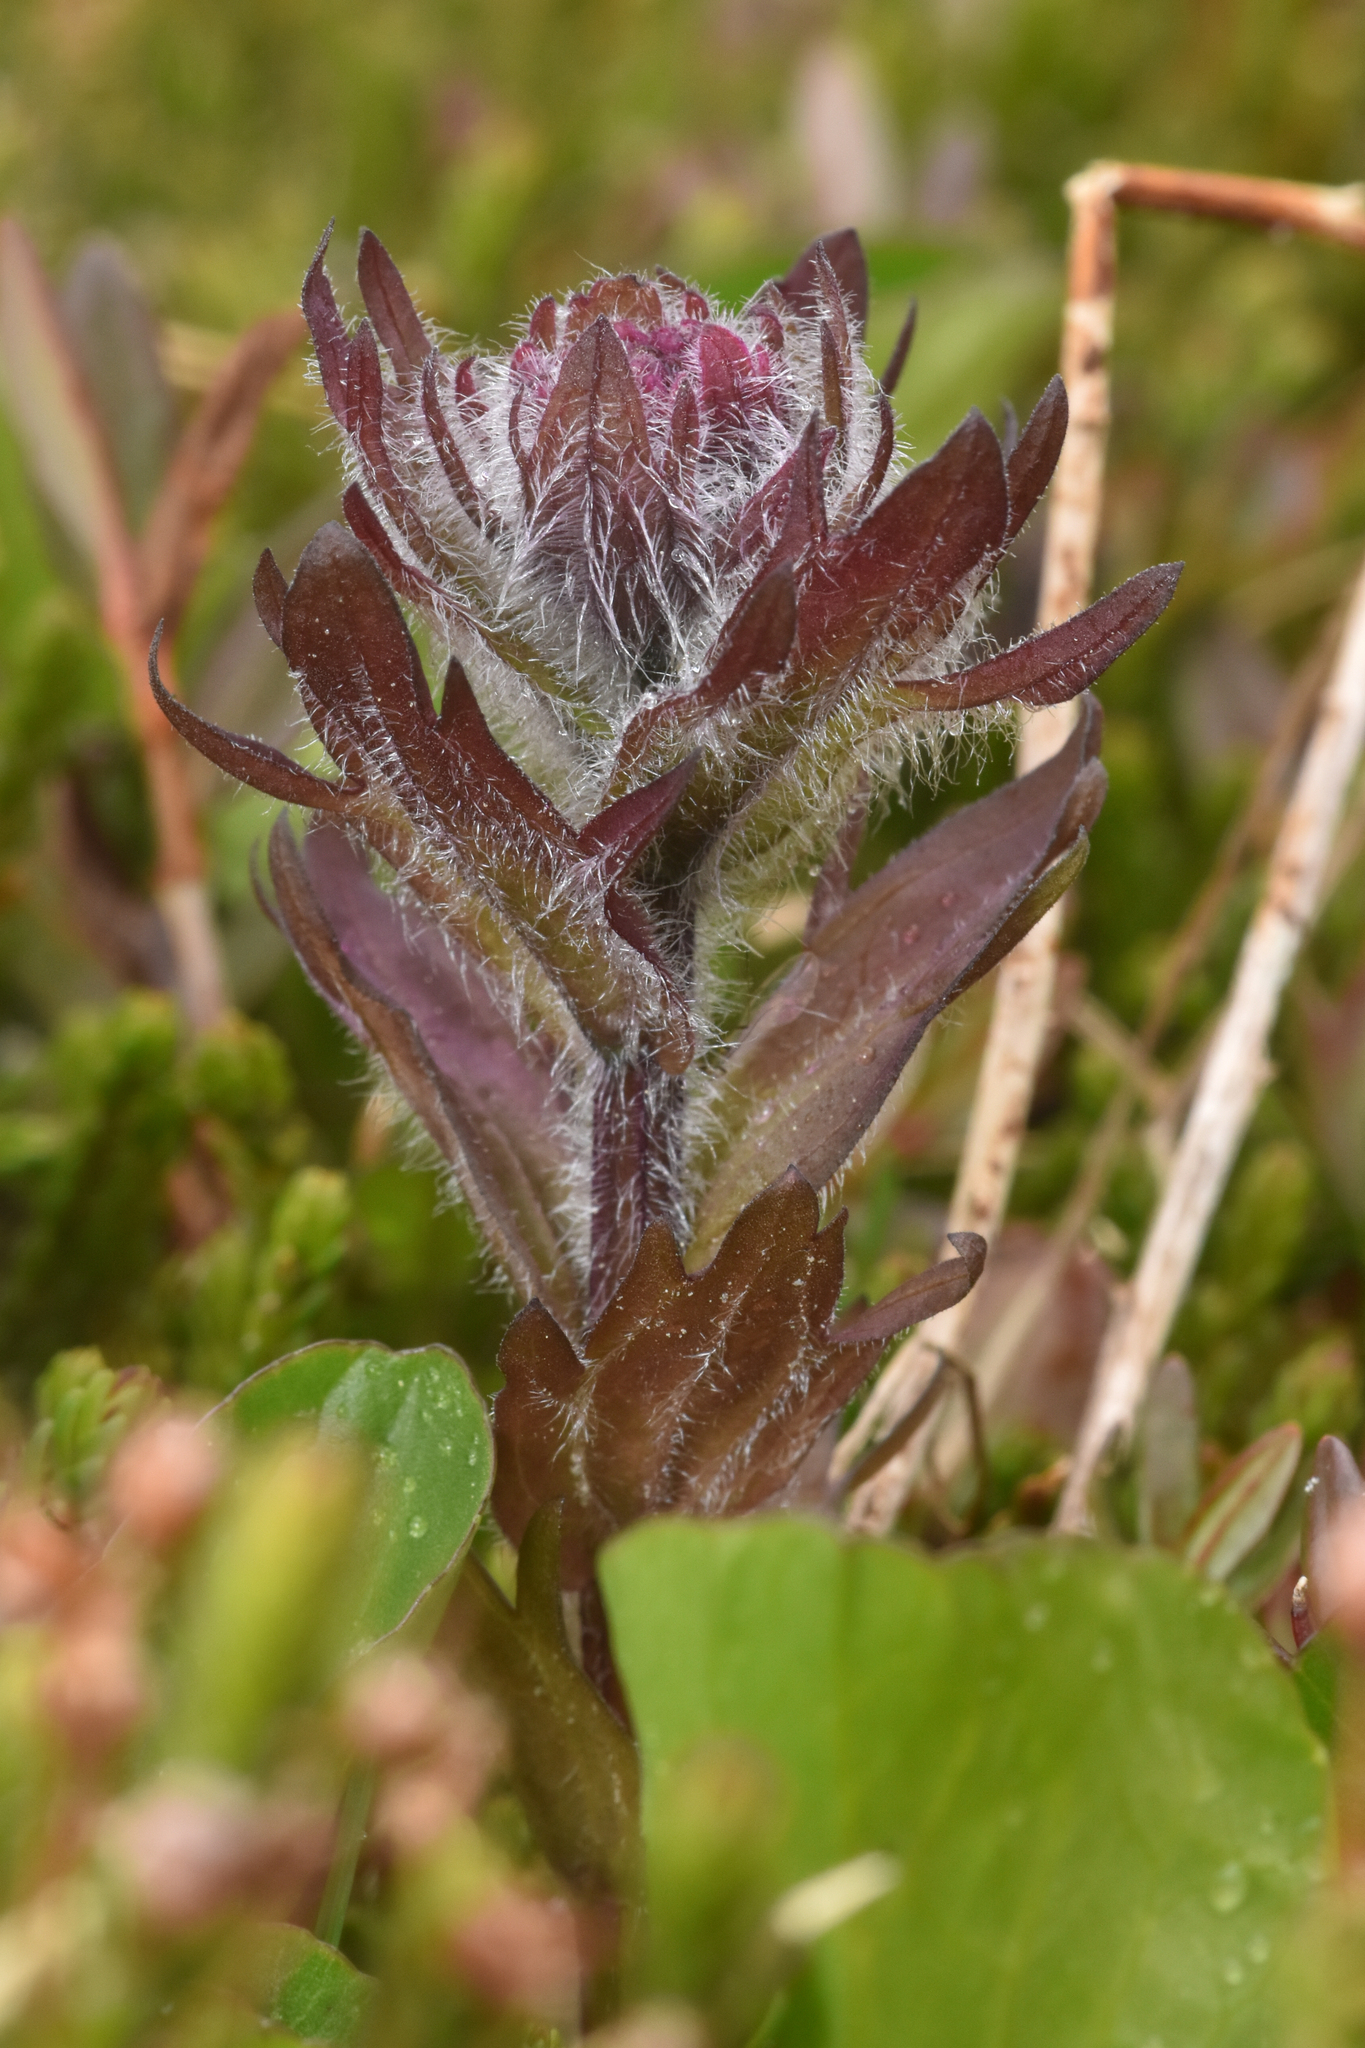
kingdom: Plantae
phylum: Tracheophyta
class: Magnoliopsida
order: Lamiales
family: Orobanchaceae
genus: Castilleja
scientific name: Castilleja parviflora
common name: Mountain paintbrush
